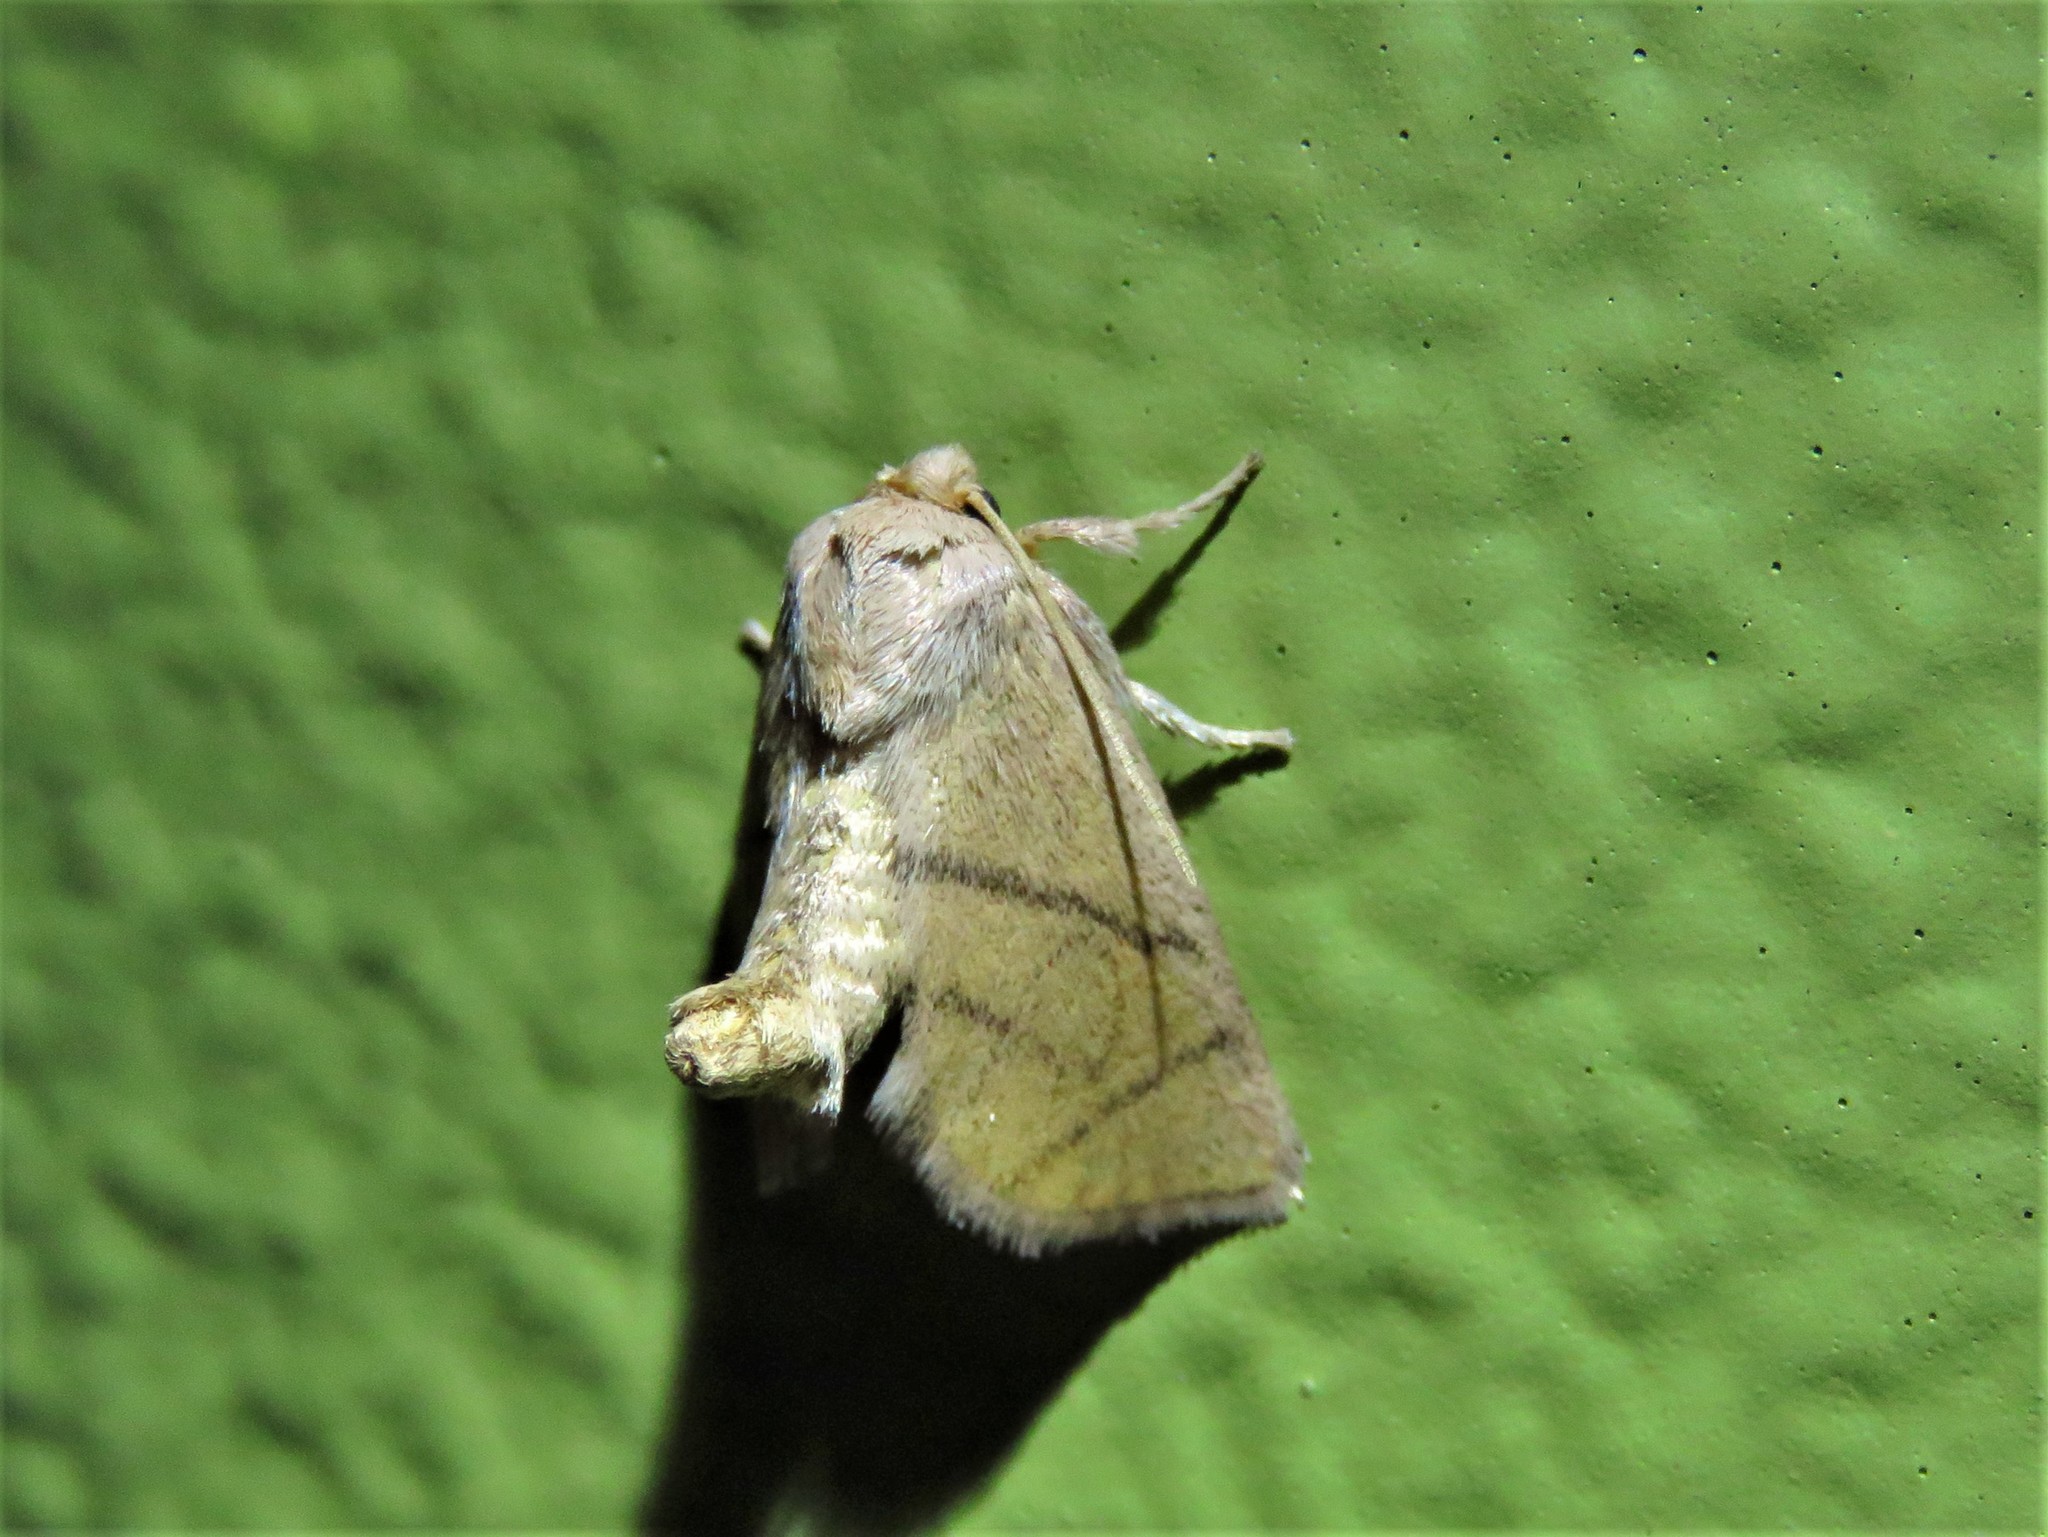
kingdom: Animalia
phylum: Arthropoda
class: Insecta
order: Lepidoptera
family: Limacodidae
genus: Apoda
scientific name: Apoda y-inversa
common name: Yellow-collared slug moth
